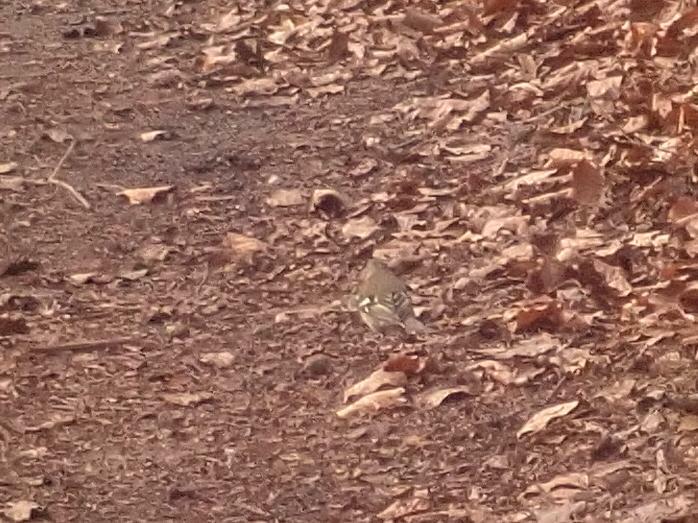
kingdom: Animalia
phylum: Chordata
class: Aves
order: Passeriformes
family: Fringillidae
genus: Fringilla
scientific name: Fringilla coelebs
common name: Common chaffinch
